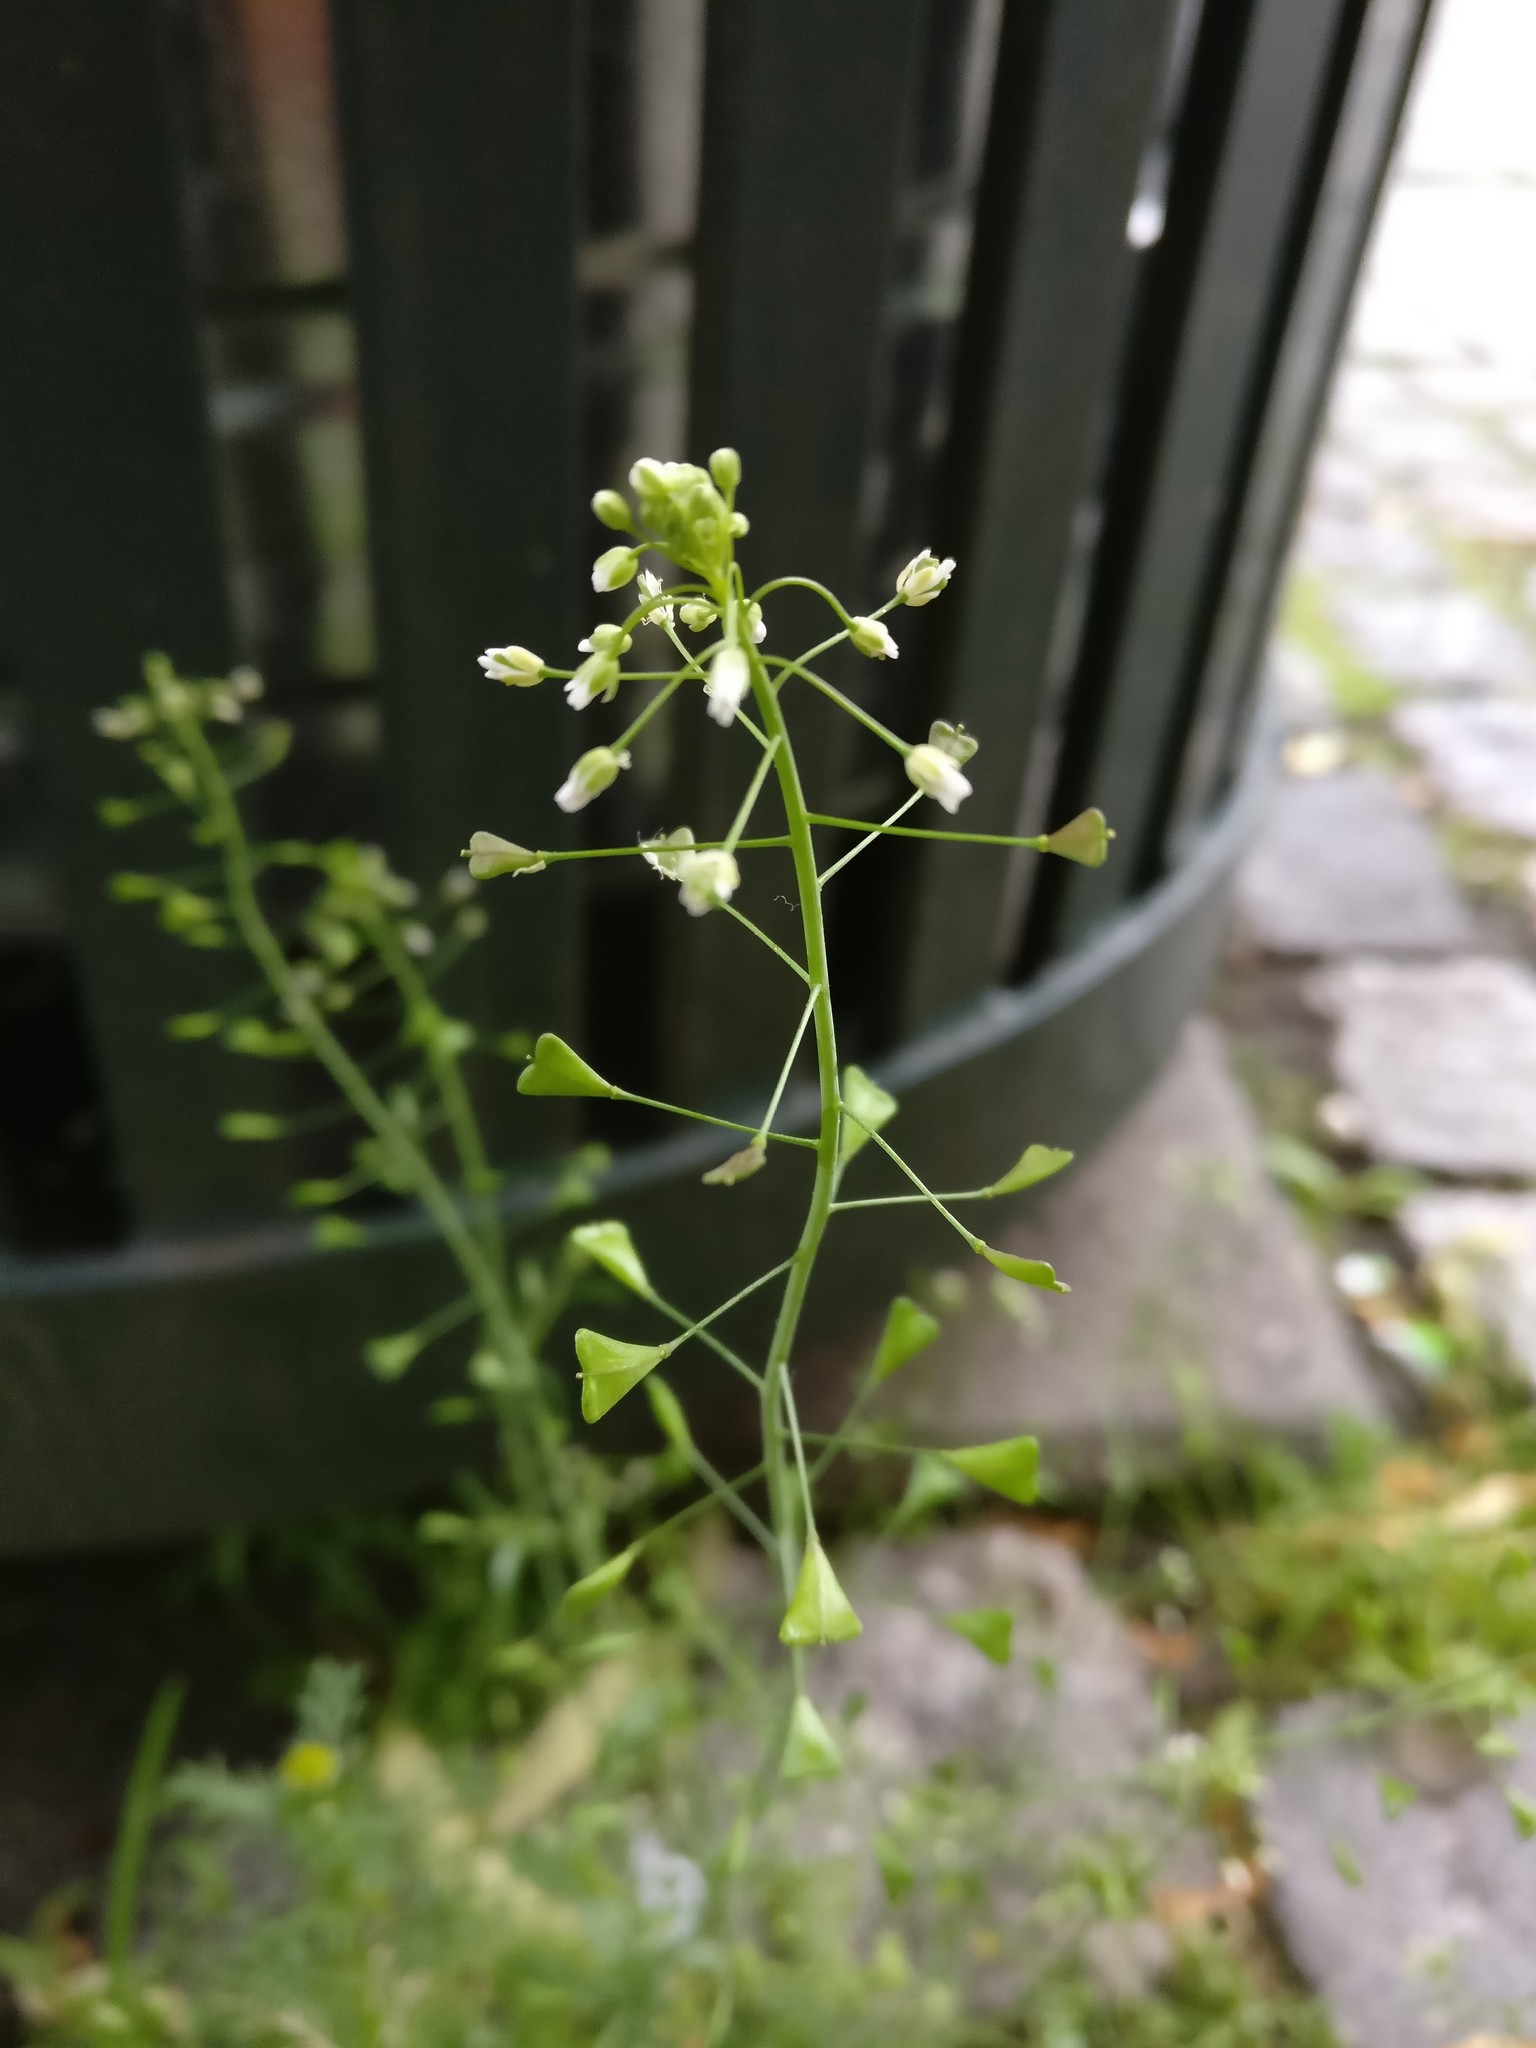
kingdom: Plantae
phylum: Tracheophyta
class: Magnoliopsida
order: Brassicales
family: Brassicaceae
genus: Capsella
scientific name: Capsella bursa-pastoris
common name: Shepherd's purse
